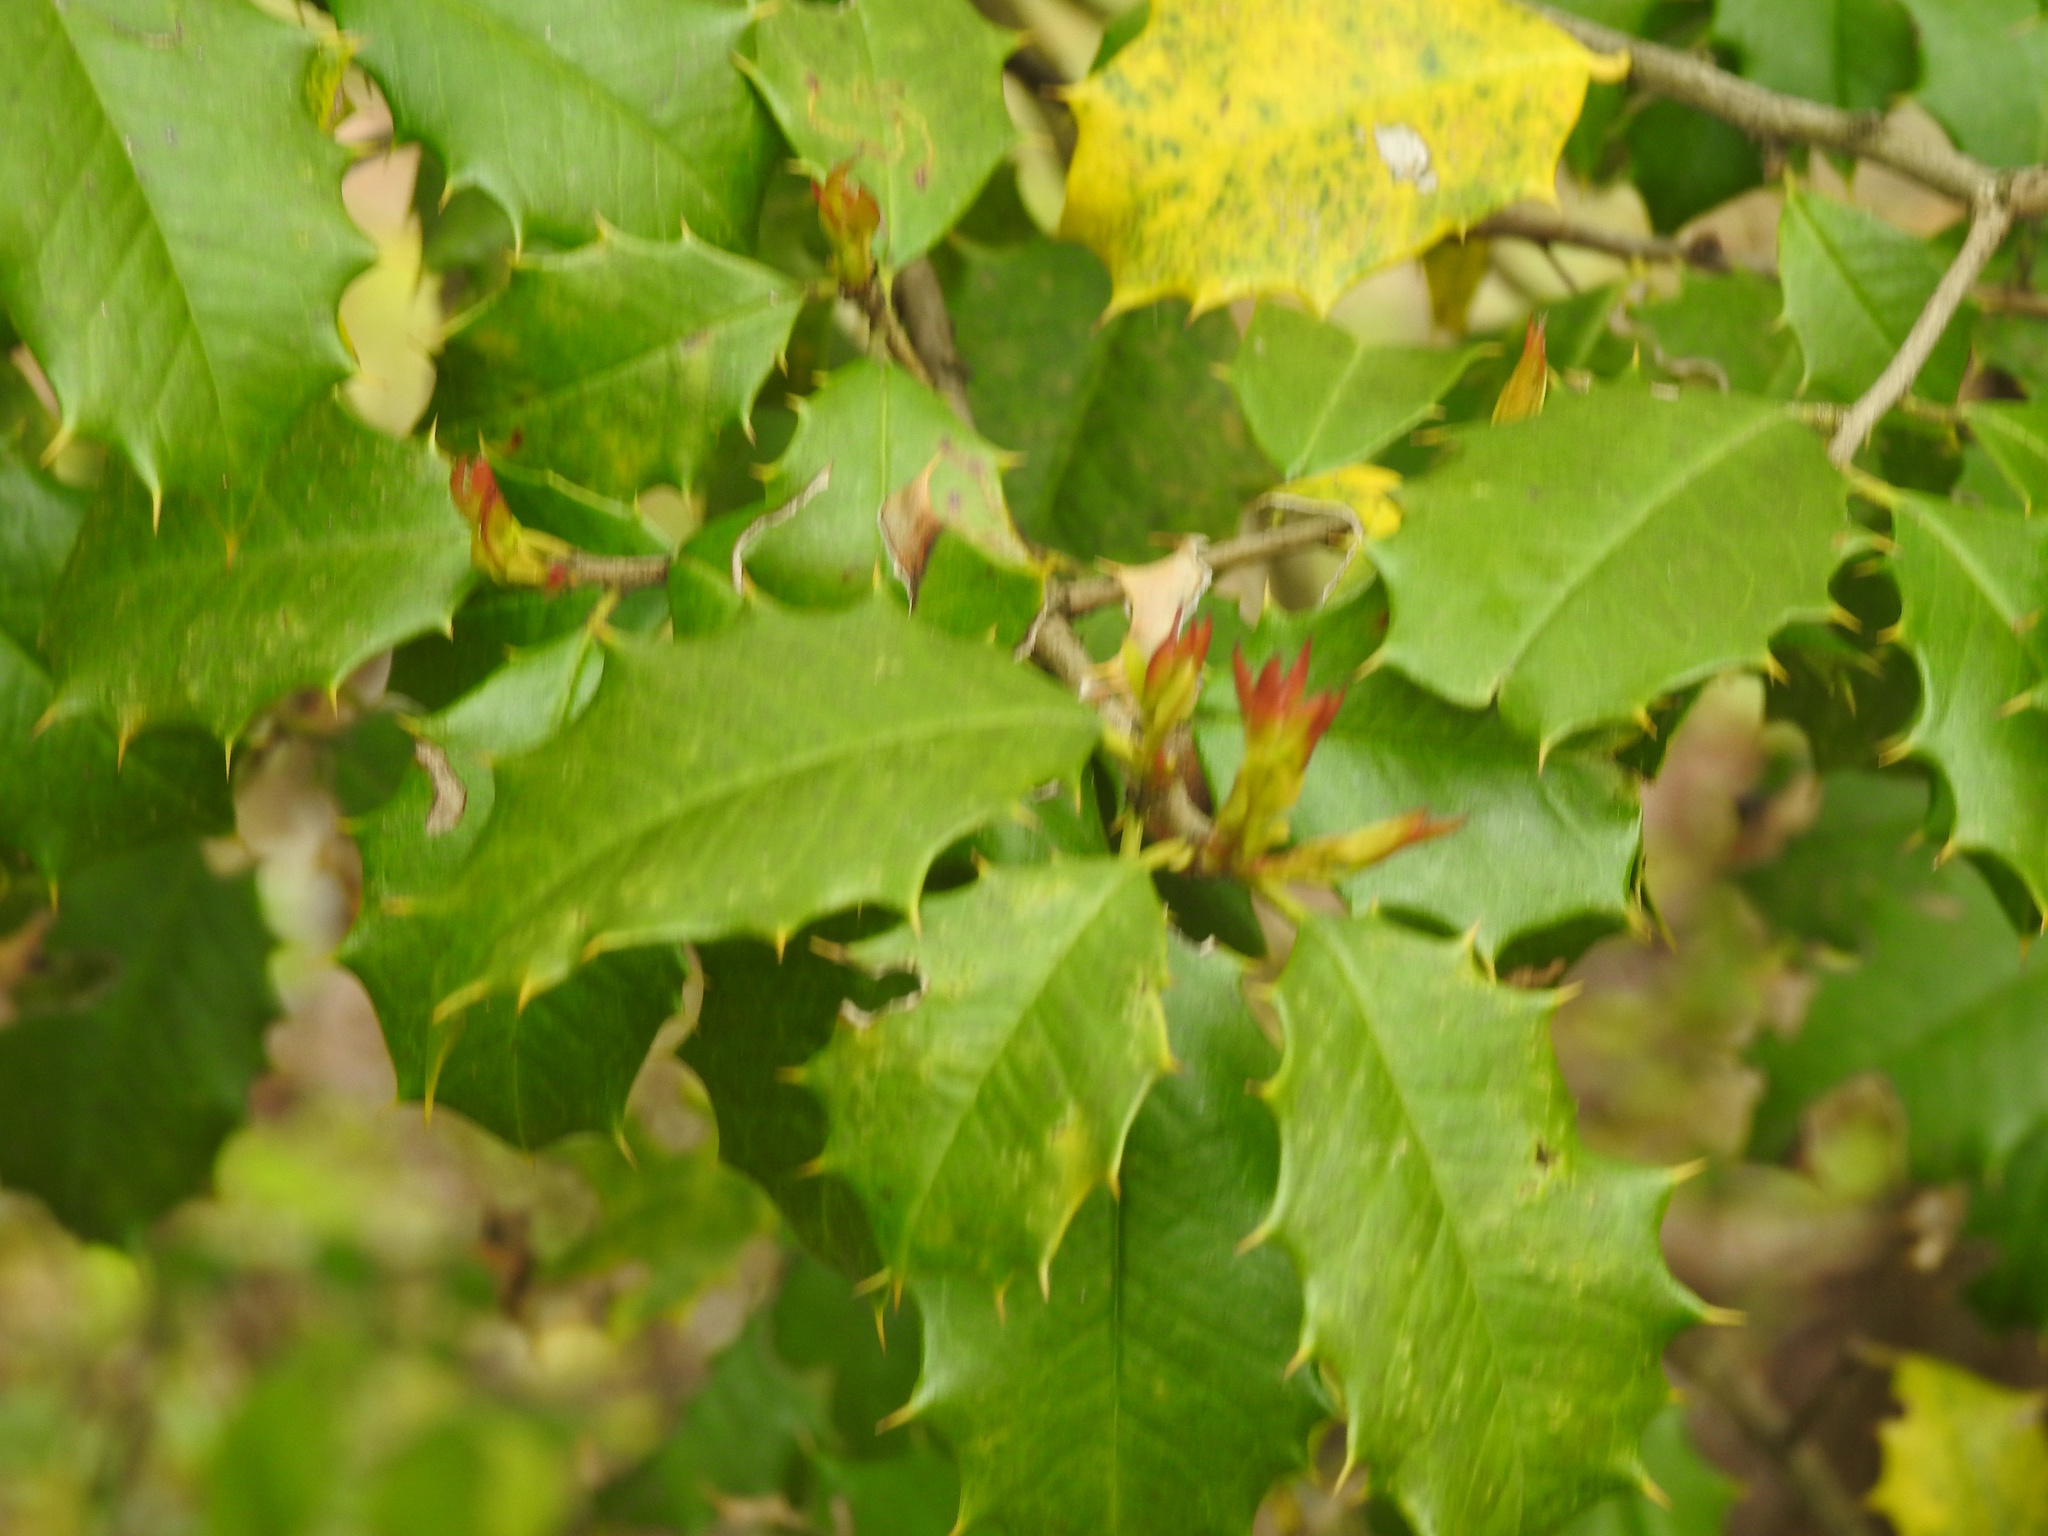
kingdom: Plantae
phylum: Tracheophyta
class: Magnoliopsida
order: Aquifoliales
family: Aquifoliaceae
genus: Ilex
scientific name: Ilex opaca
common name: American holly
